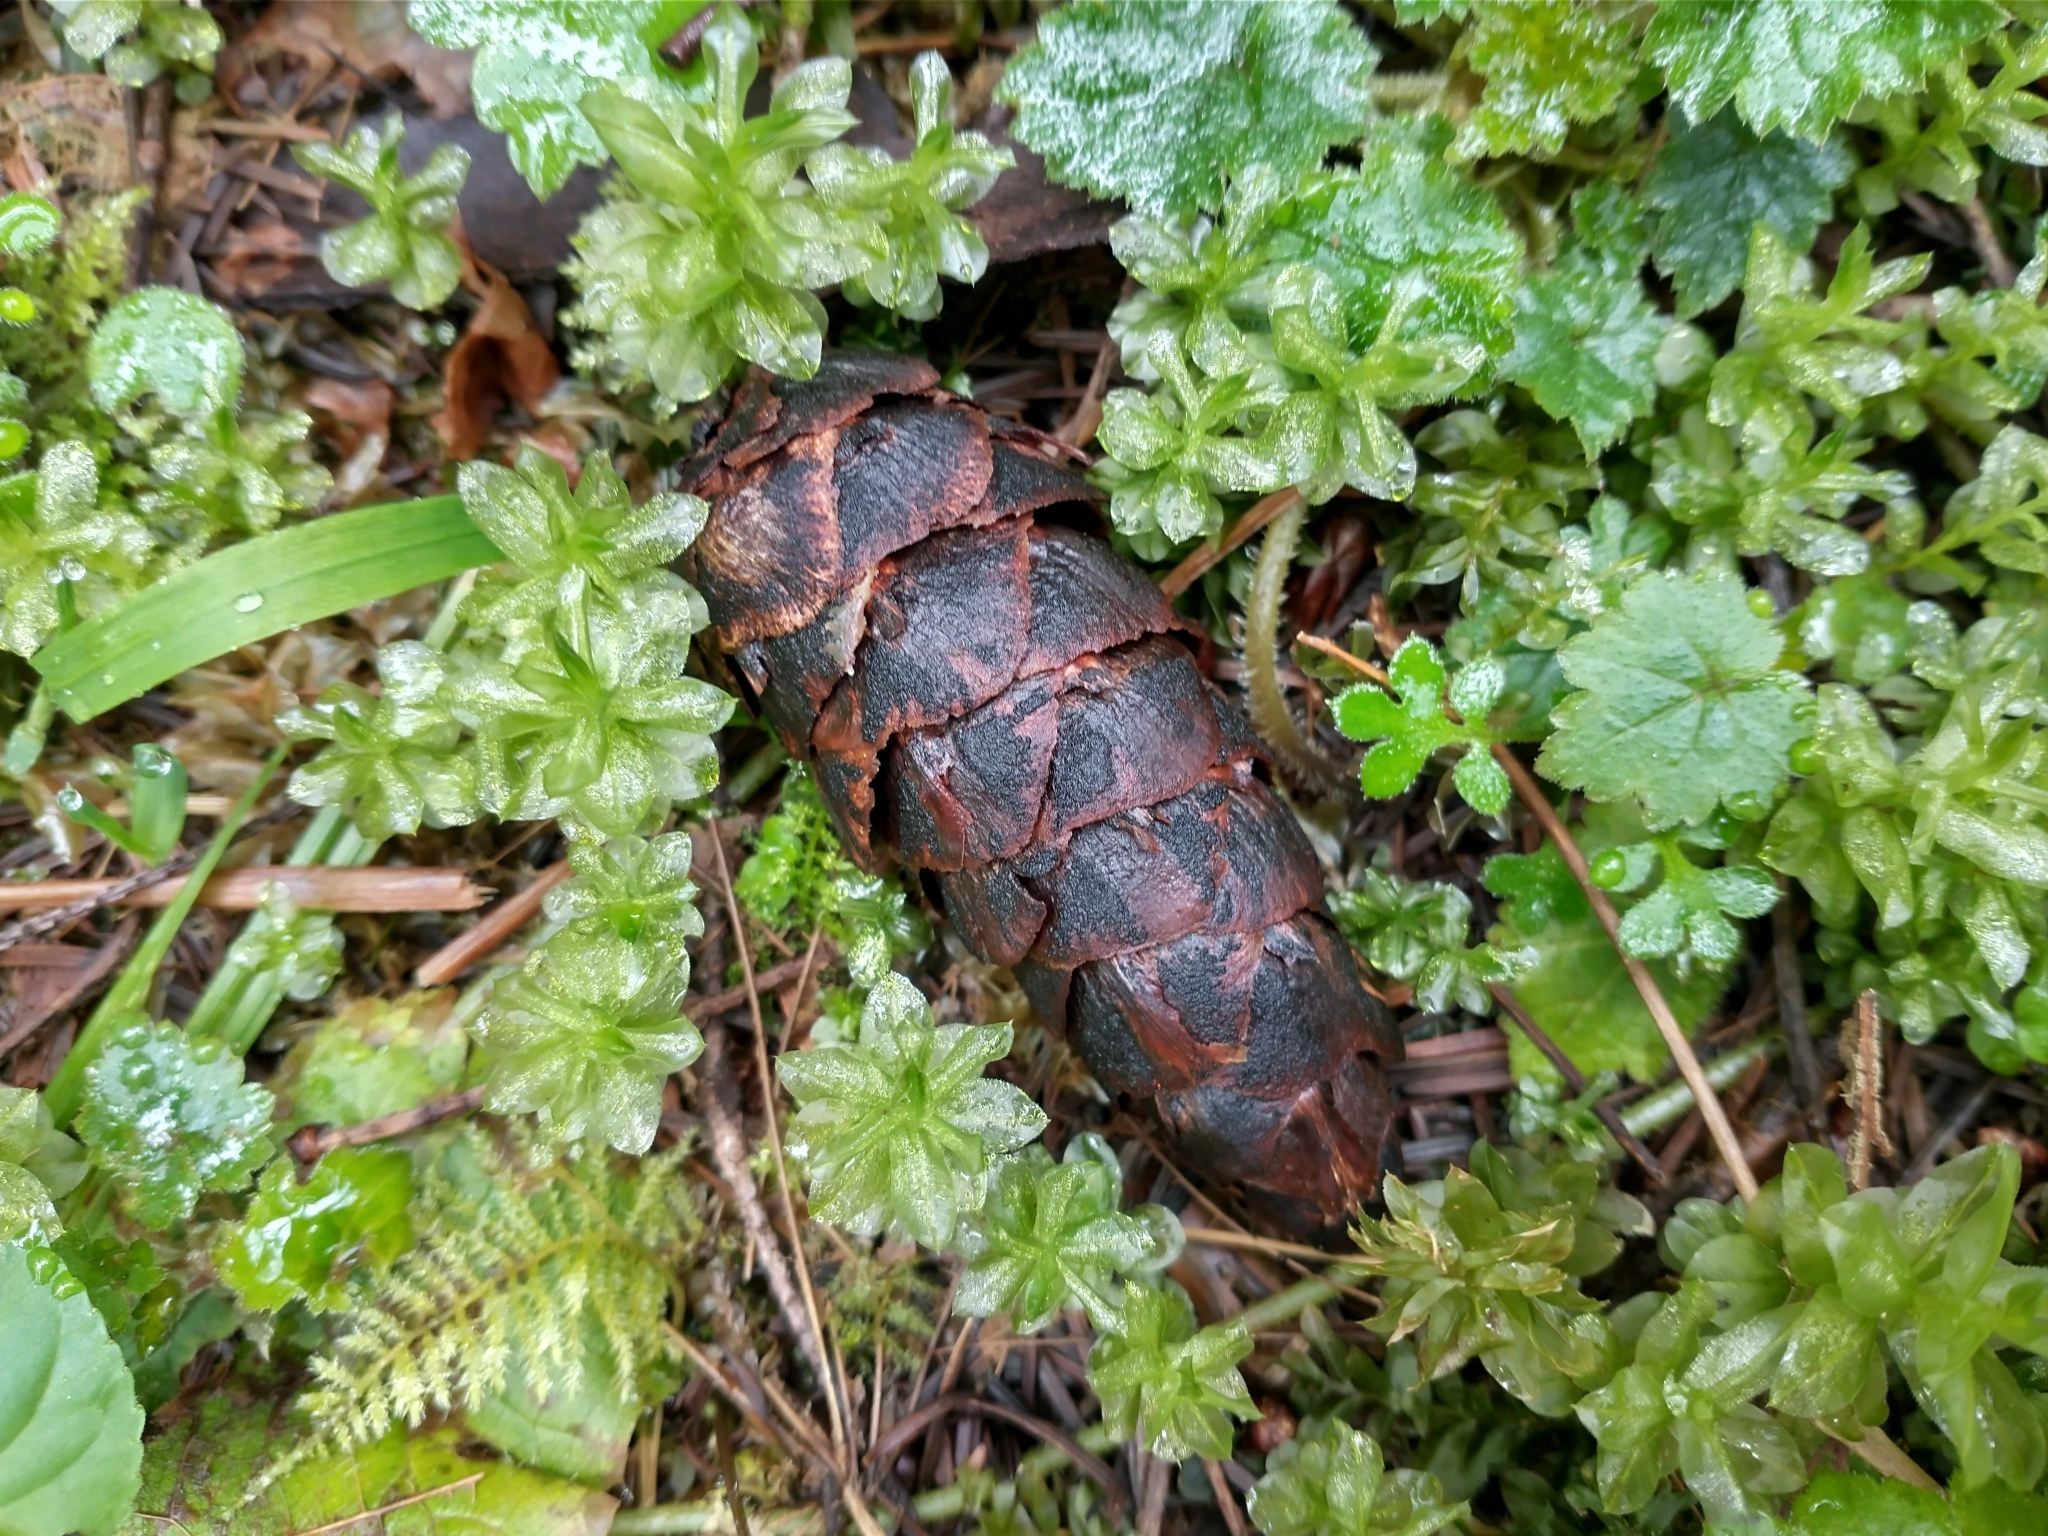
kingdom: Plantae
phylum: Tracheophyta
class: Pinopsida
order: Pinales
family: Pinaceae
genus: Pseudotsuga
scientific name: Pseudotsuga menziesii
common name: Douglas fir
